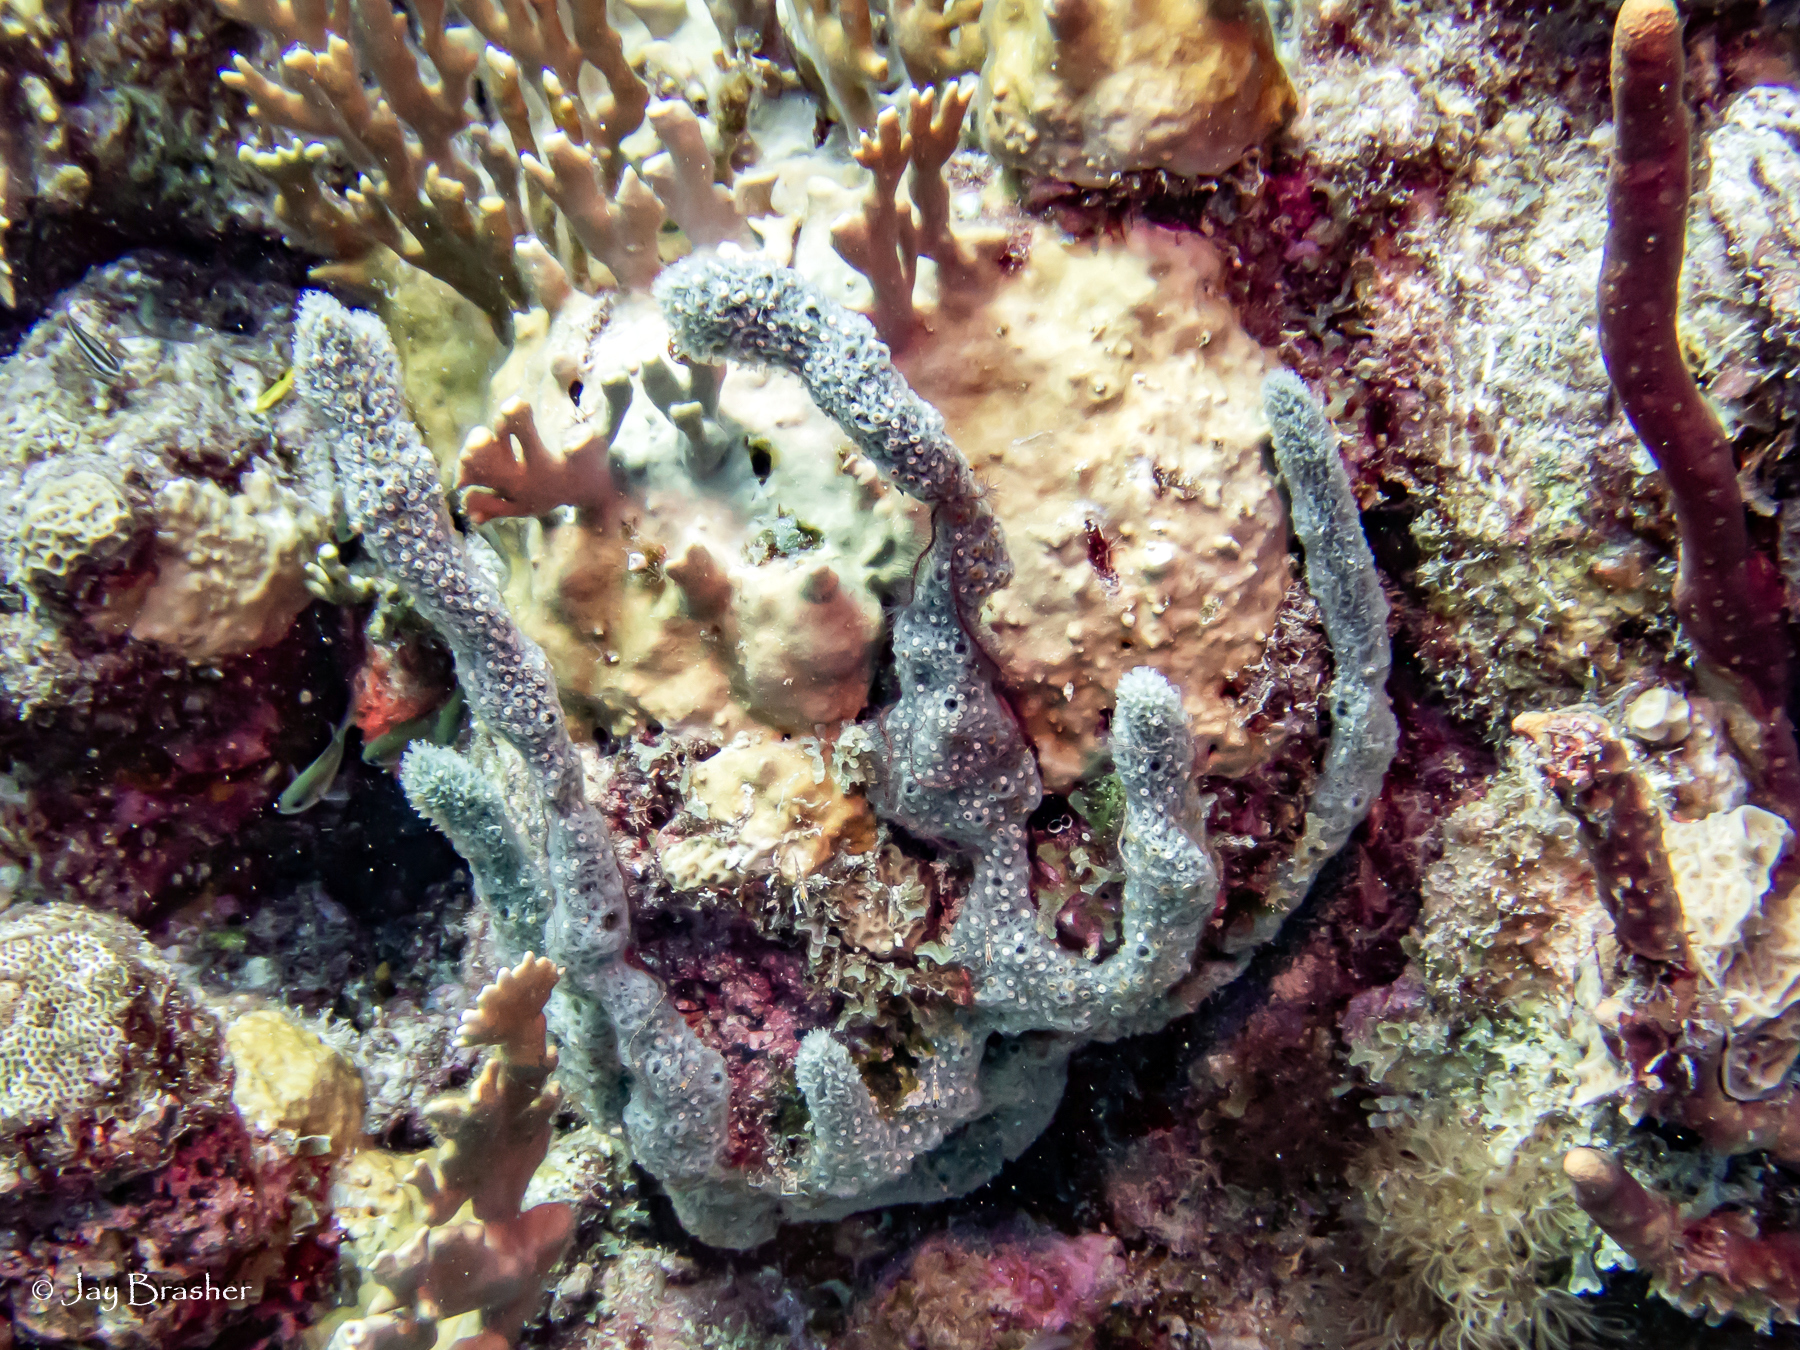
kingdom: Animalia
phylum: Porifera
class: Demospongiae
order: Haplosclerida
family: Niphatidae
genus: Niphates
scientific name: Niphates erecta
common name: Lavender rope sponge
